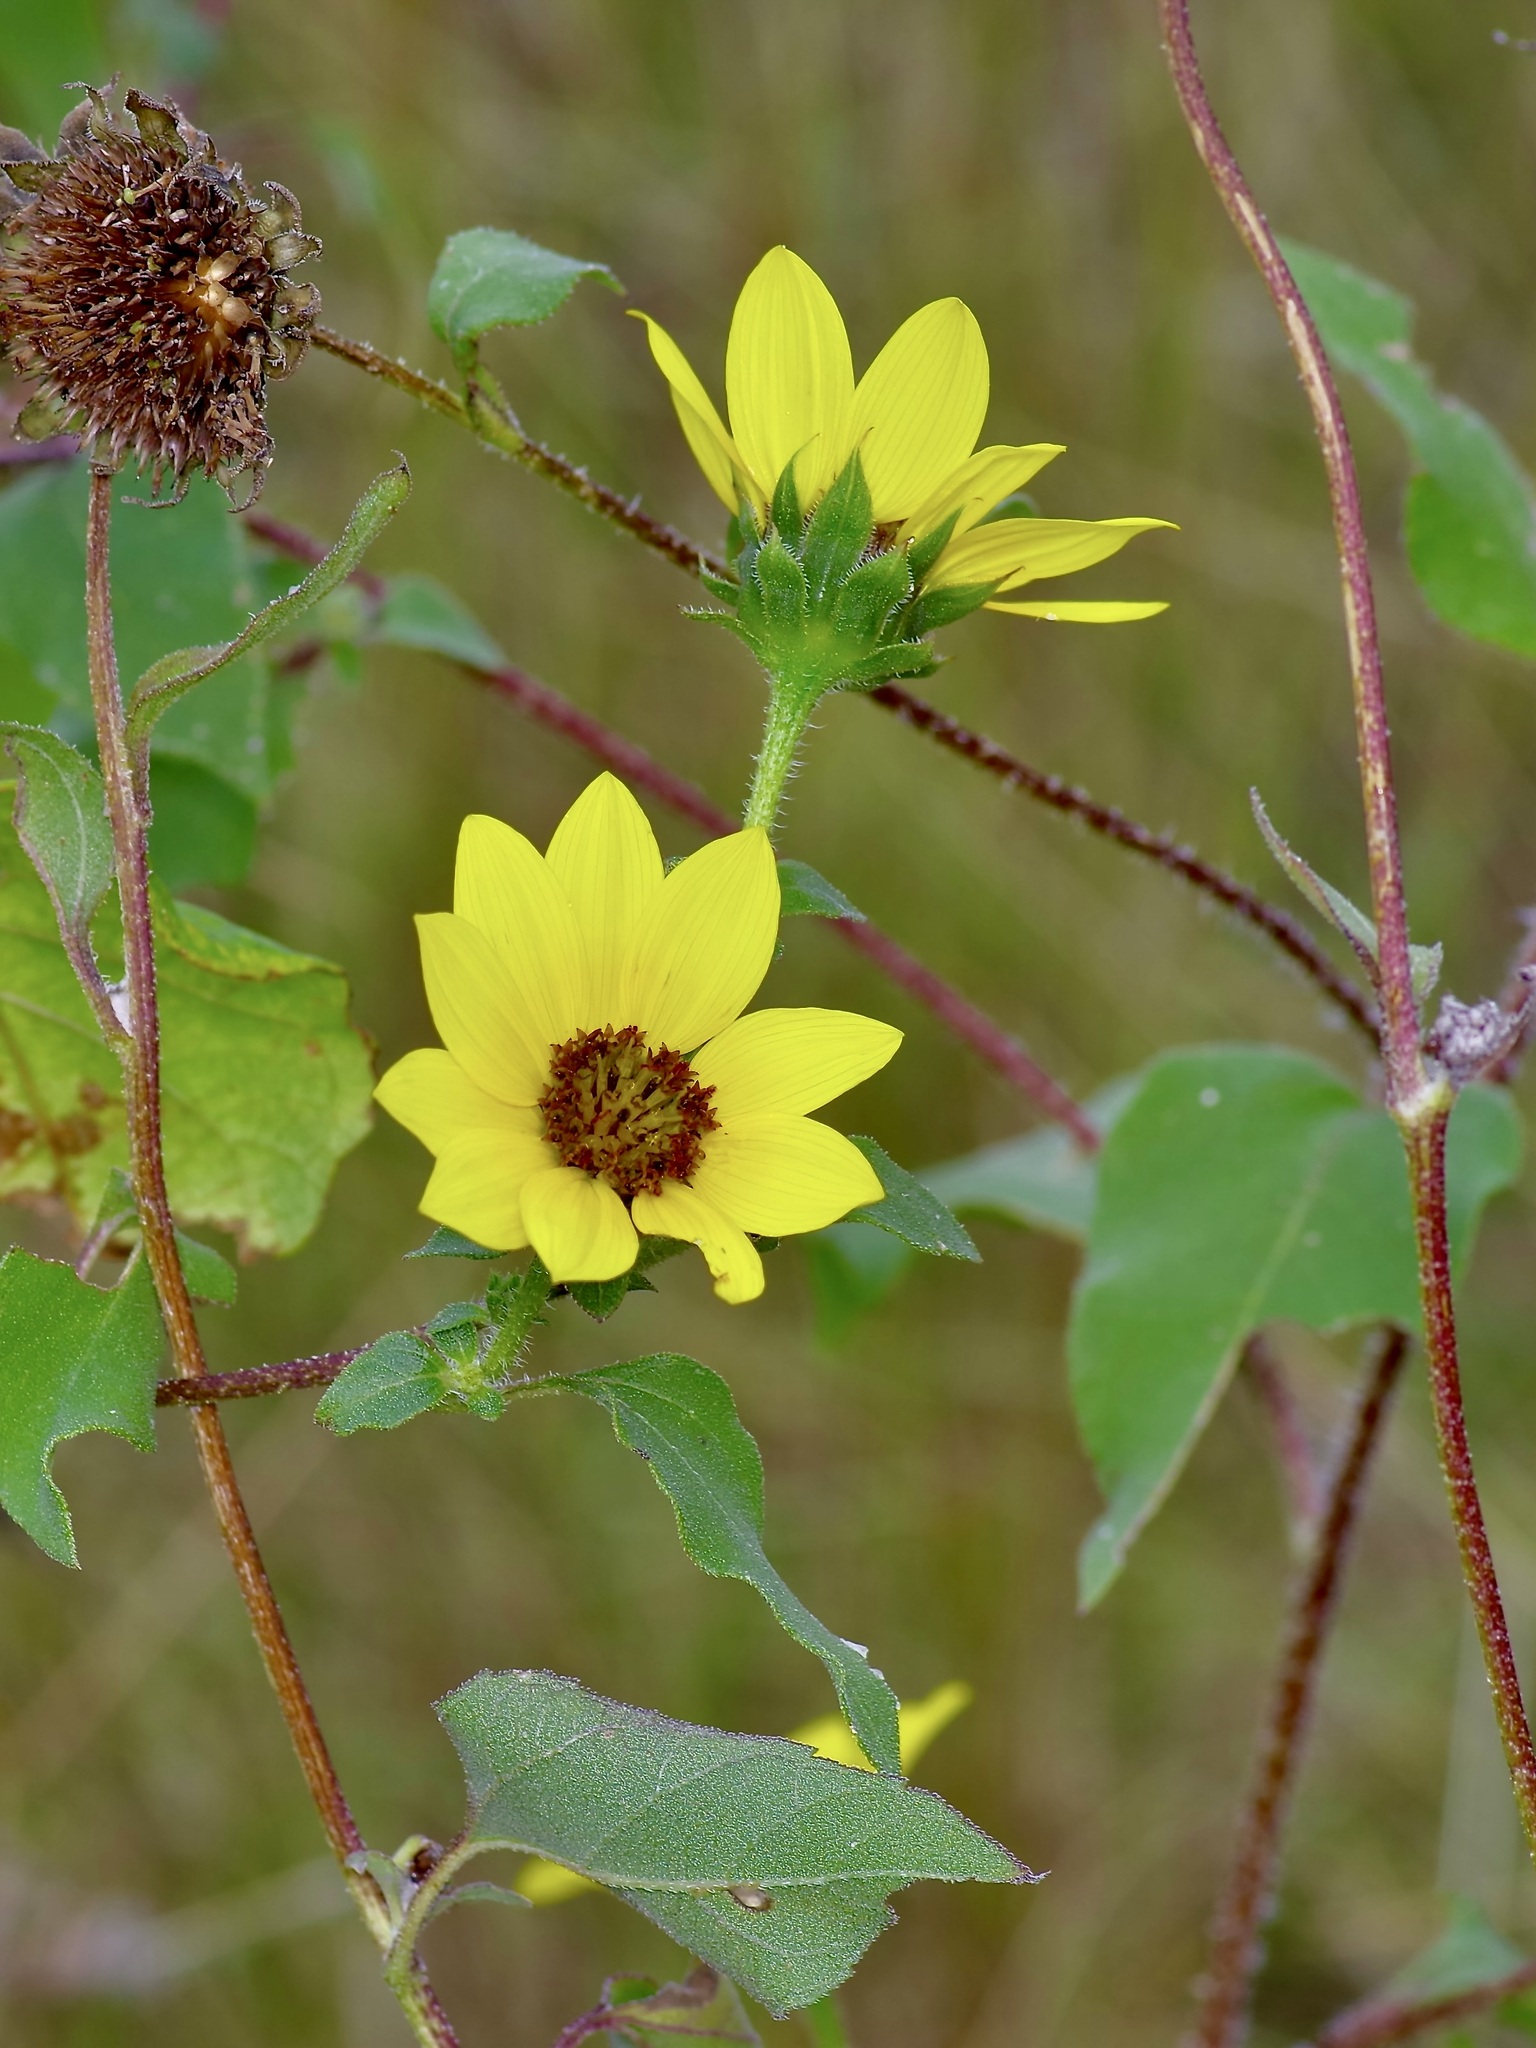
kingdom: Plantae
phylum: Tracheophyta
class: Magnoliopsida
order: Asterales
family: Asteraceae
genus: Helianthus
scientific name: Helianthus petiolaris
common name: Lesser sunflower
